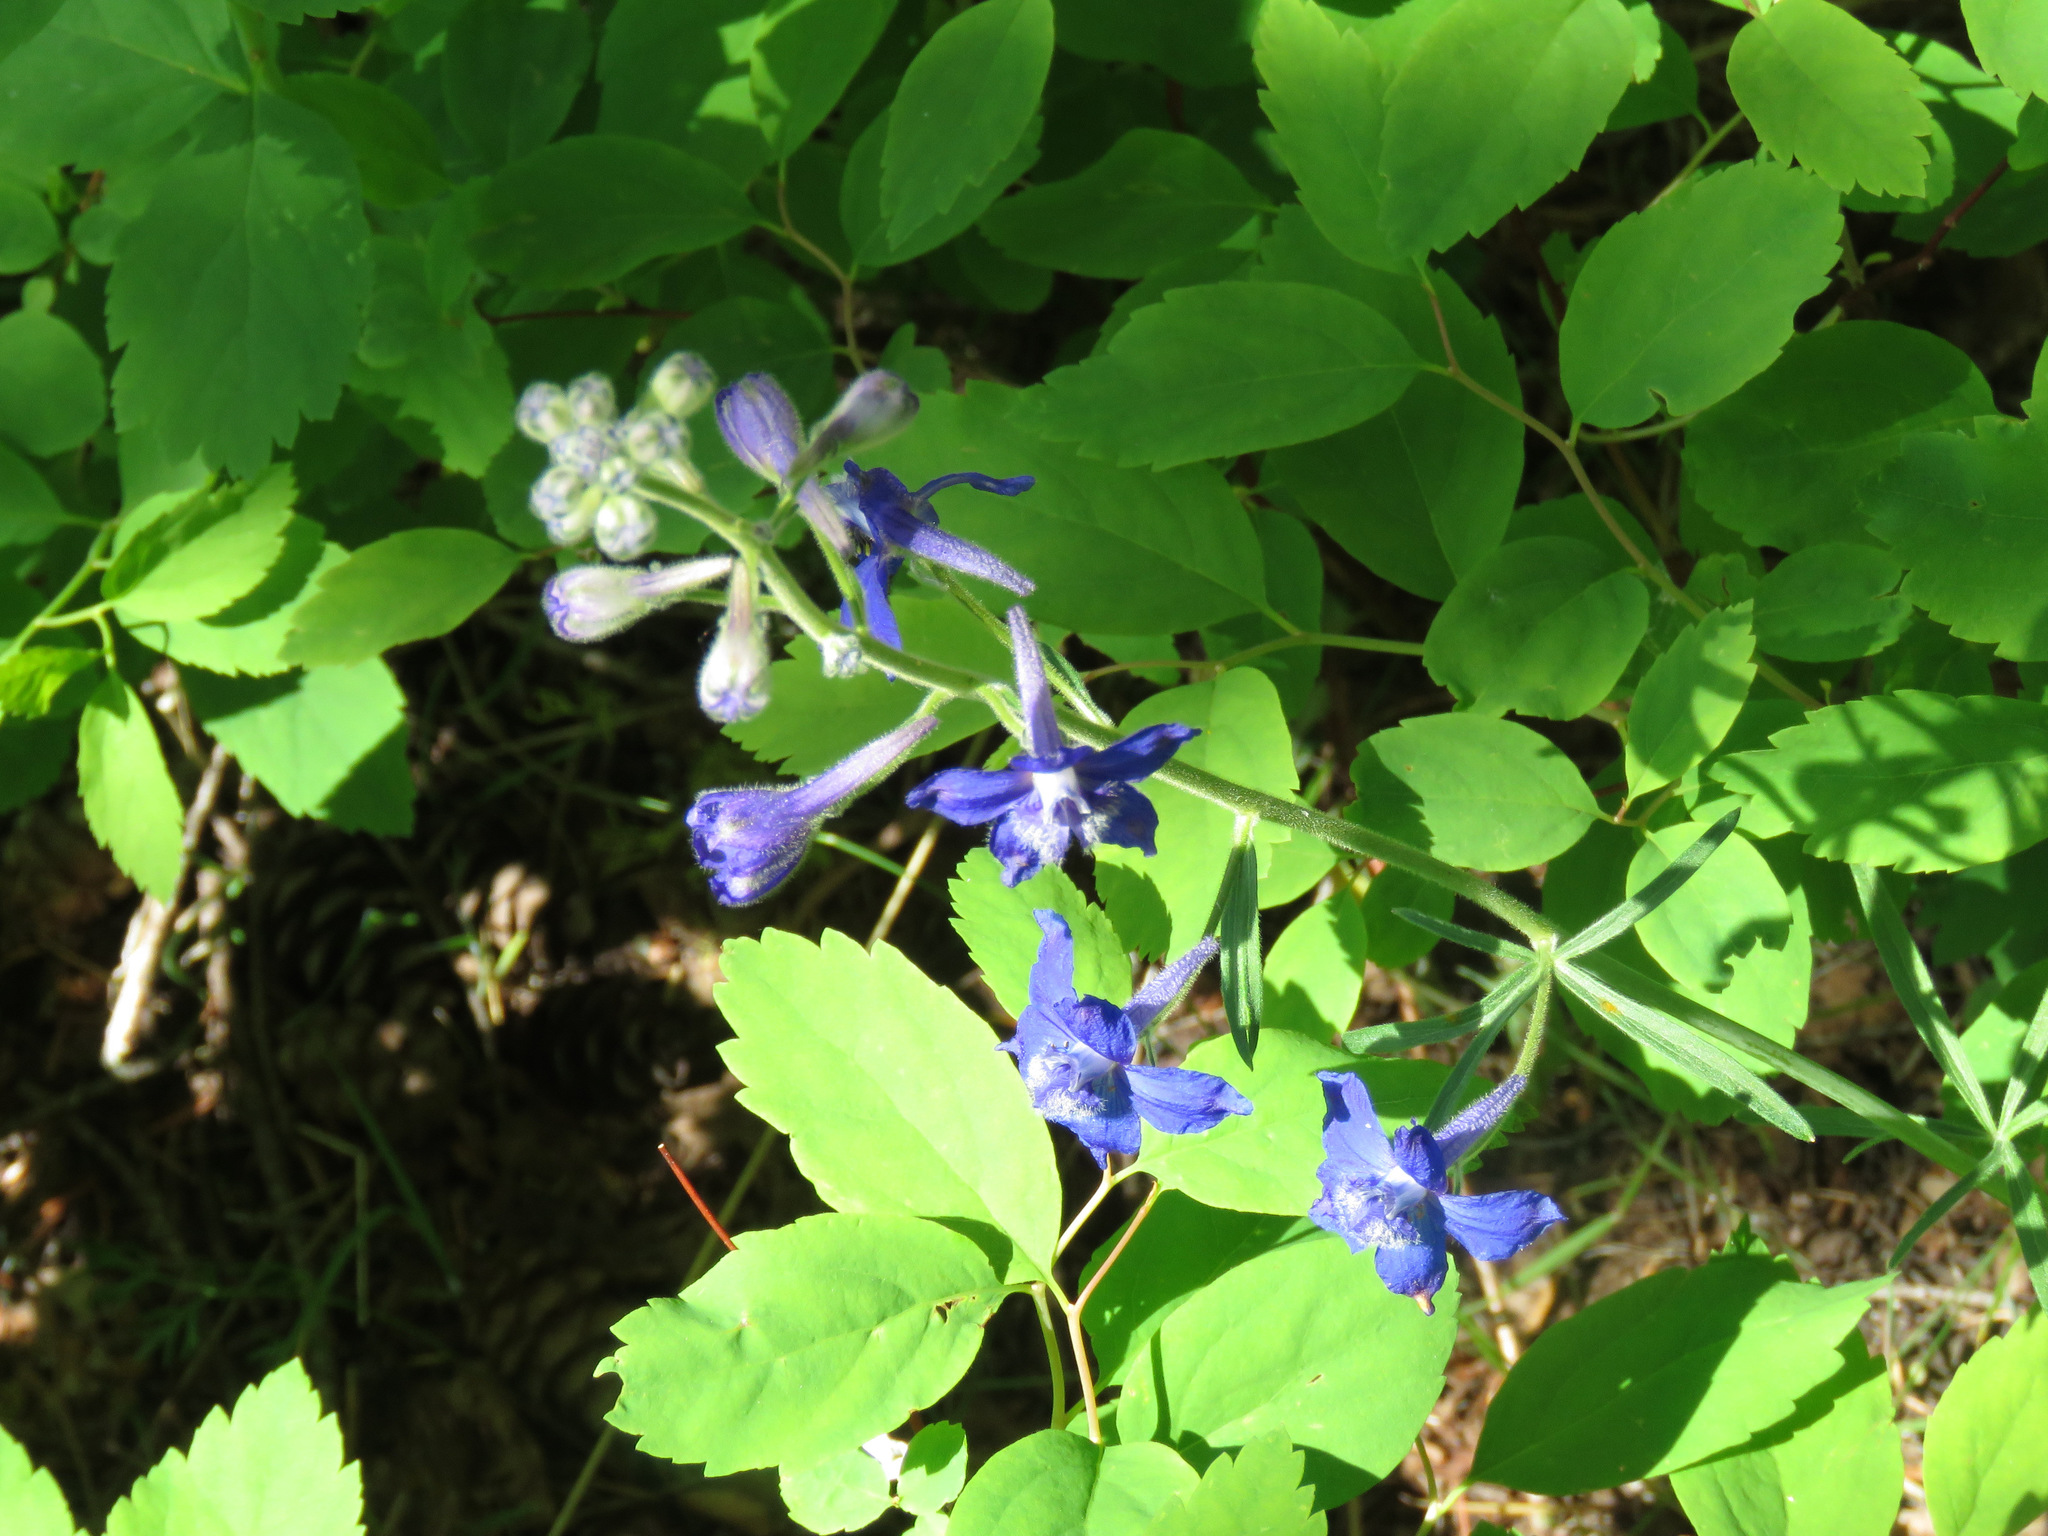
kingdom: Plantae
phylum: Tracheophyta
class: Magnoliopsida
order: Ranunculales
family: Ranunculaceae
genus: Delphinium
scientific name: Delphinium nuttallianum
